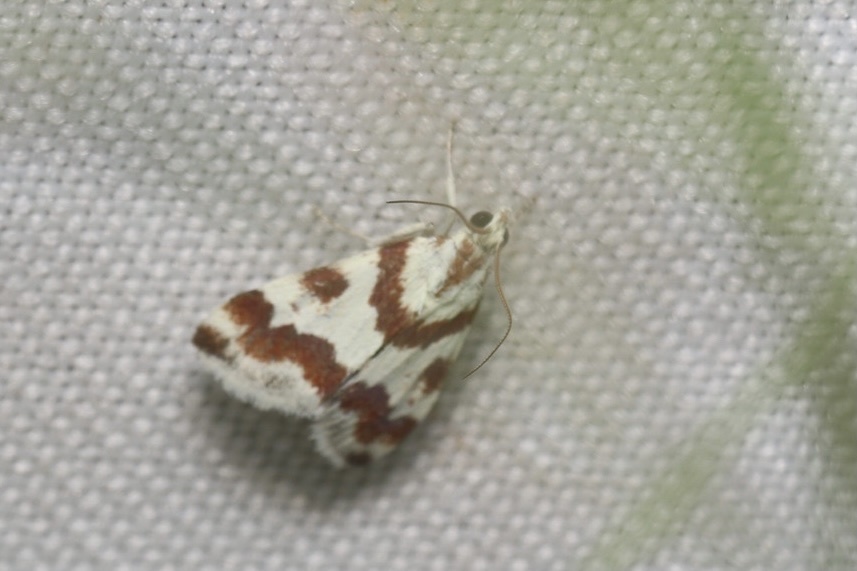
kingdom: Animalia
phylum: Arthropoda
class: Insecta
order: Lepidoptera
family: Crambidae
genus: Noctuelia
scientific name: Noctuelia Mimoschinia rufofascialis
